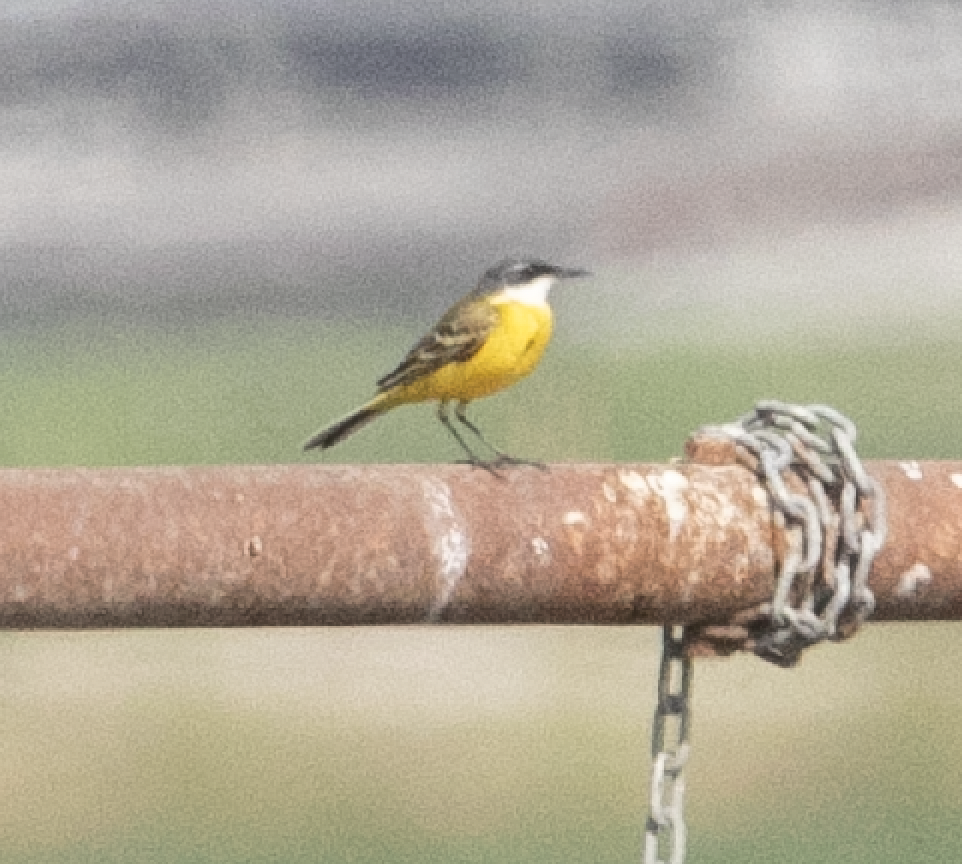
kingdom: Animalia
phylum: Chordata
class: Aves
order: Passeriformes
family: Motacillidae
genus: Motacilla
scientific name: Motacilla flava
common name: Western yellow wagtail
